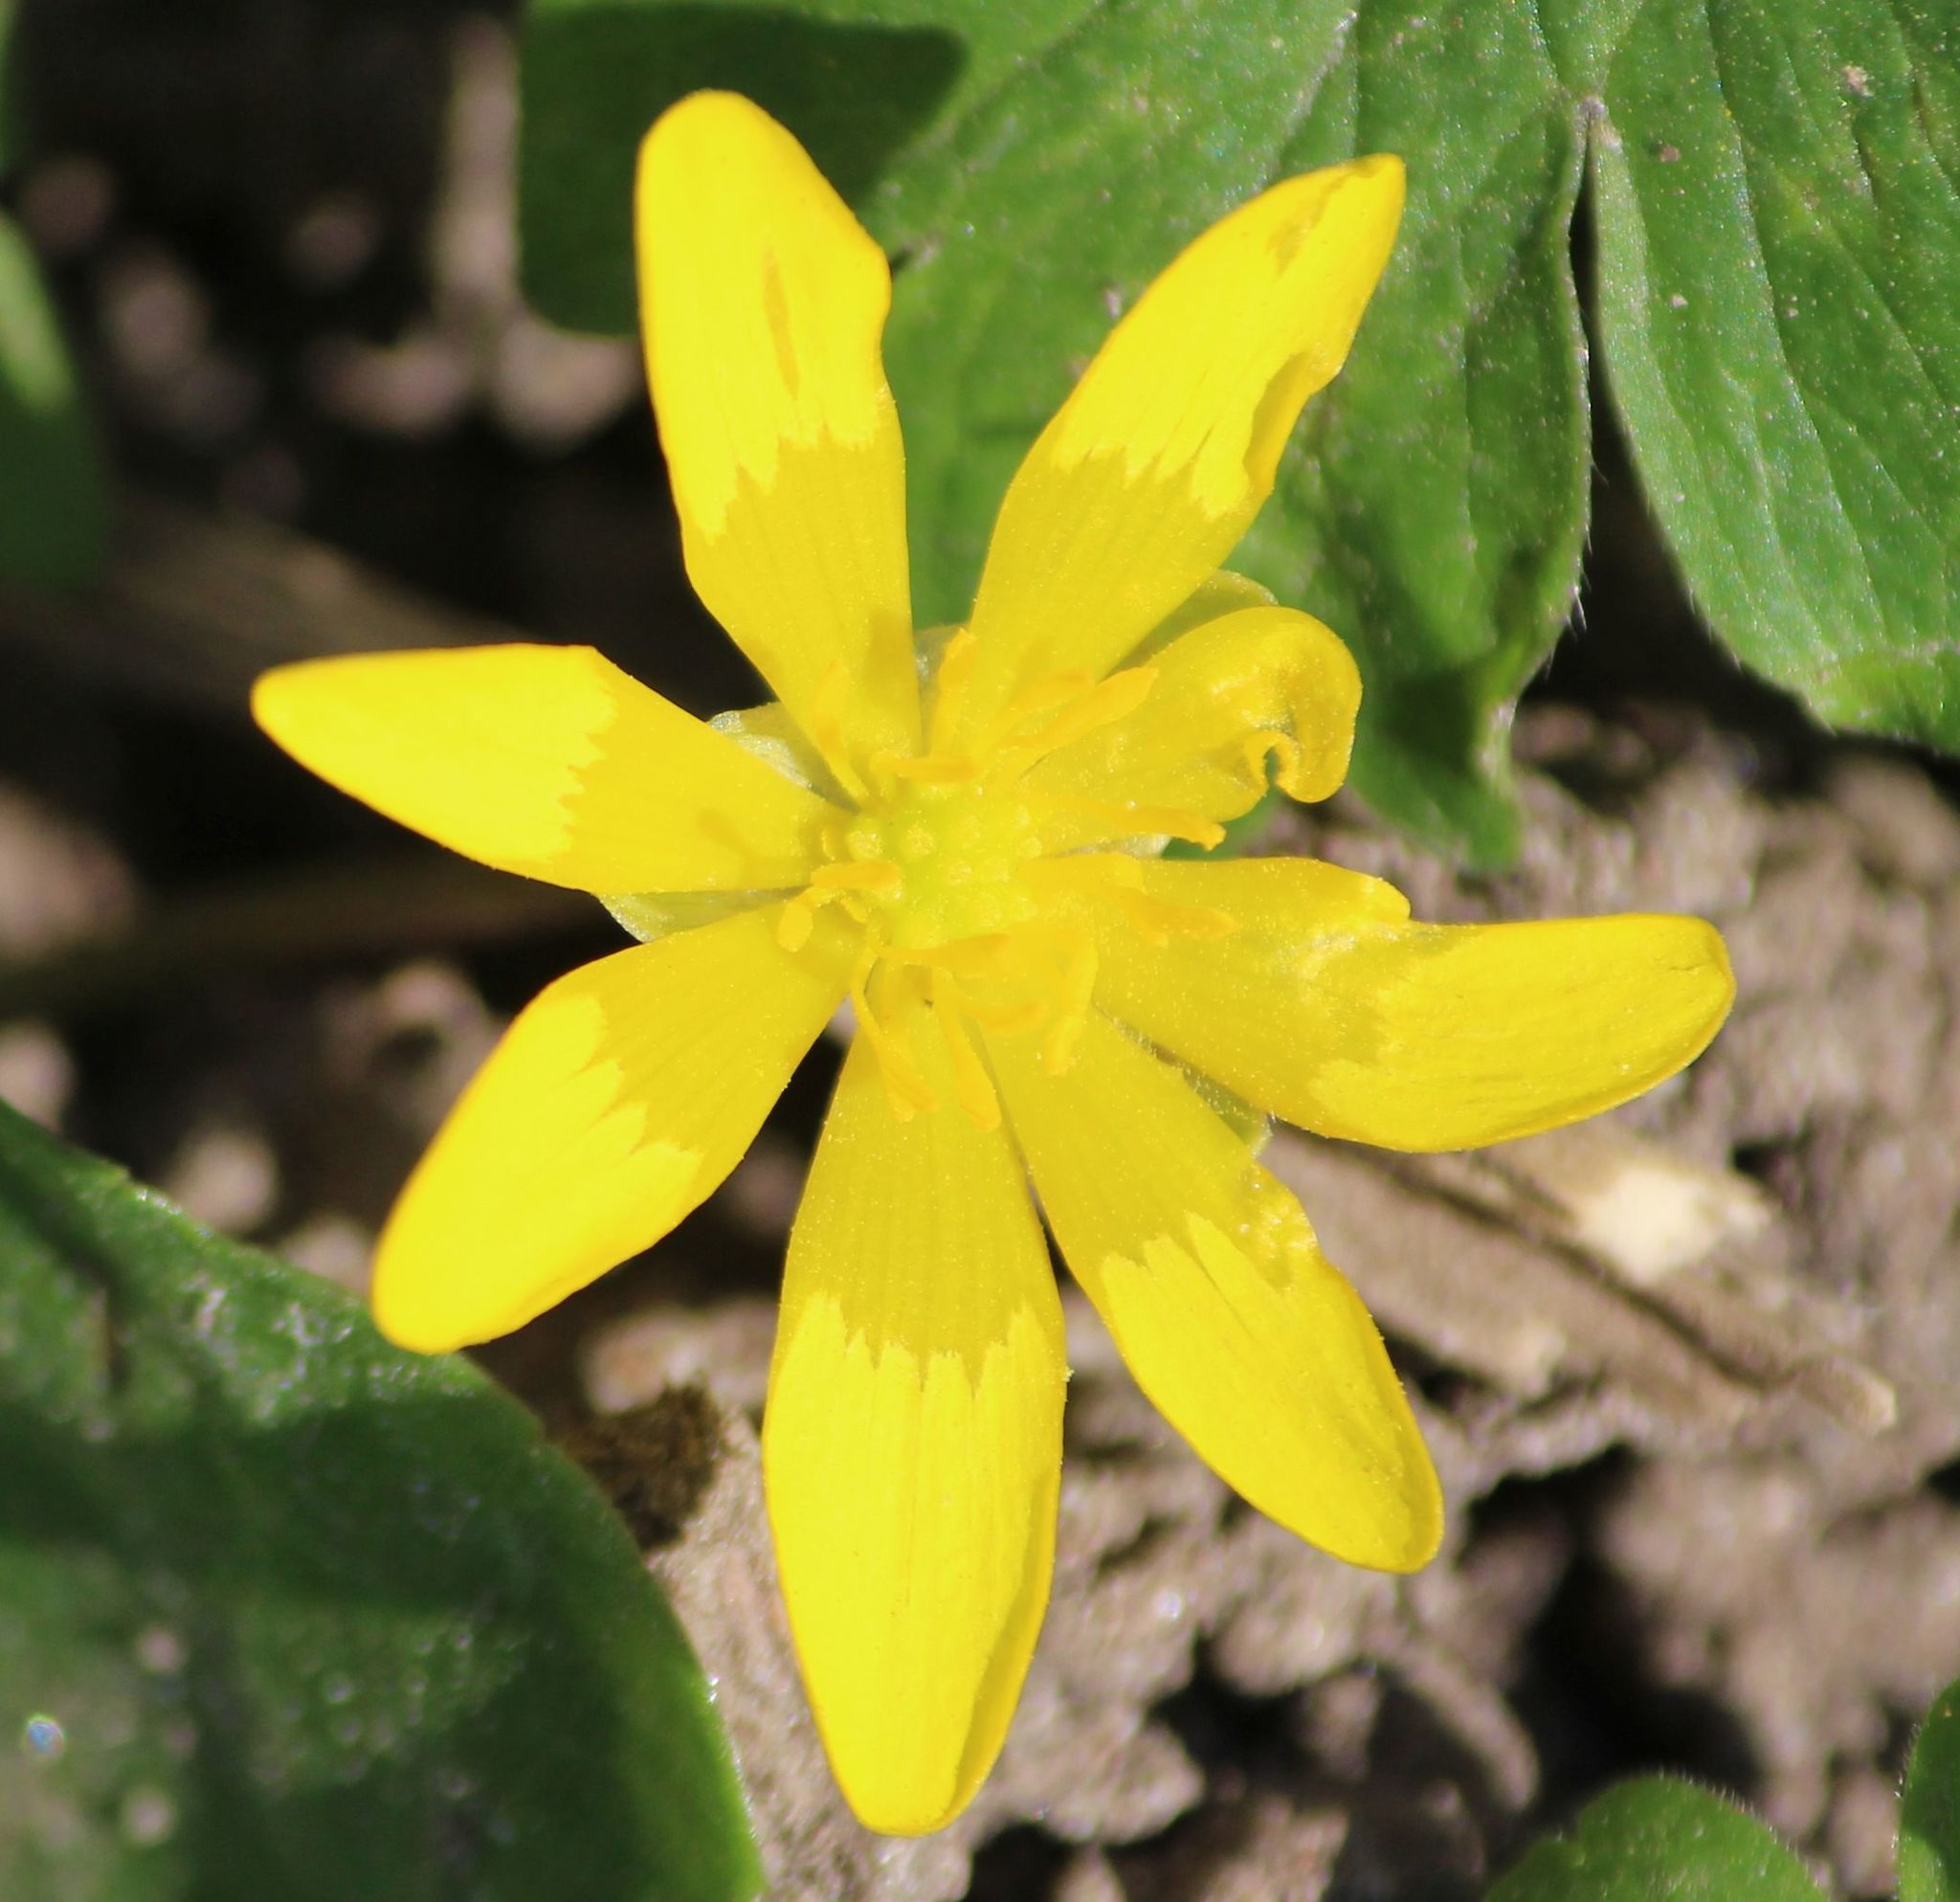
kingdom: Plantae
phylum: Tracheophyta
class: Magnoliopsida
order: Ranunculales
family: Ranunculaceae
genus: Ficaria
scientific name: Ficaria verna
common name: Lesser celandine
